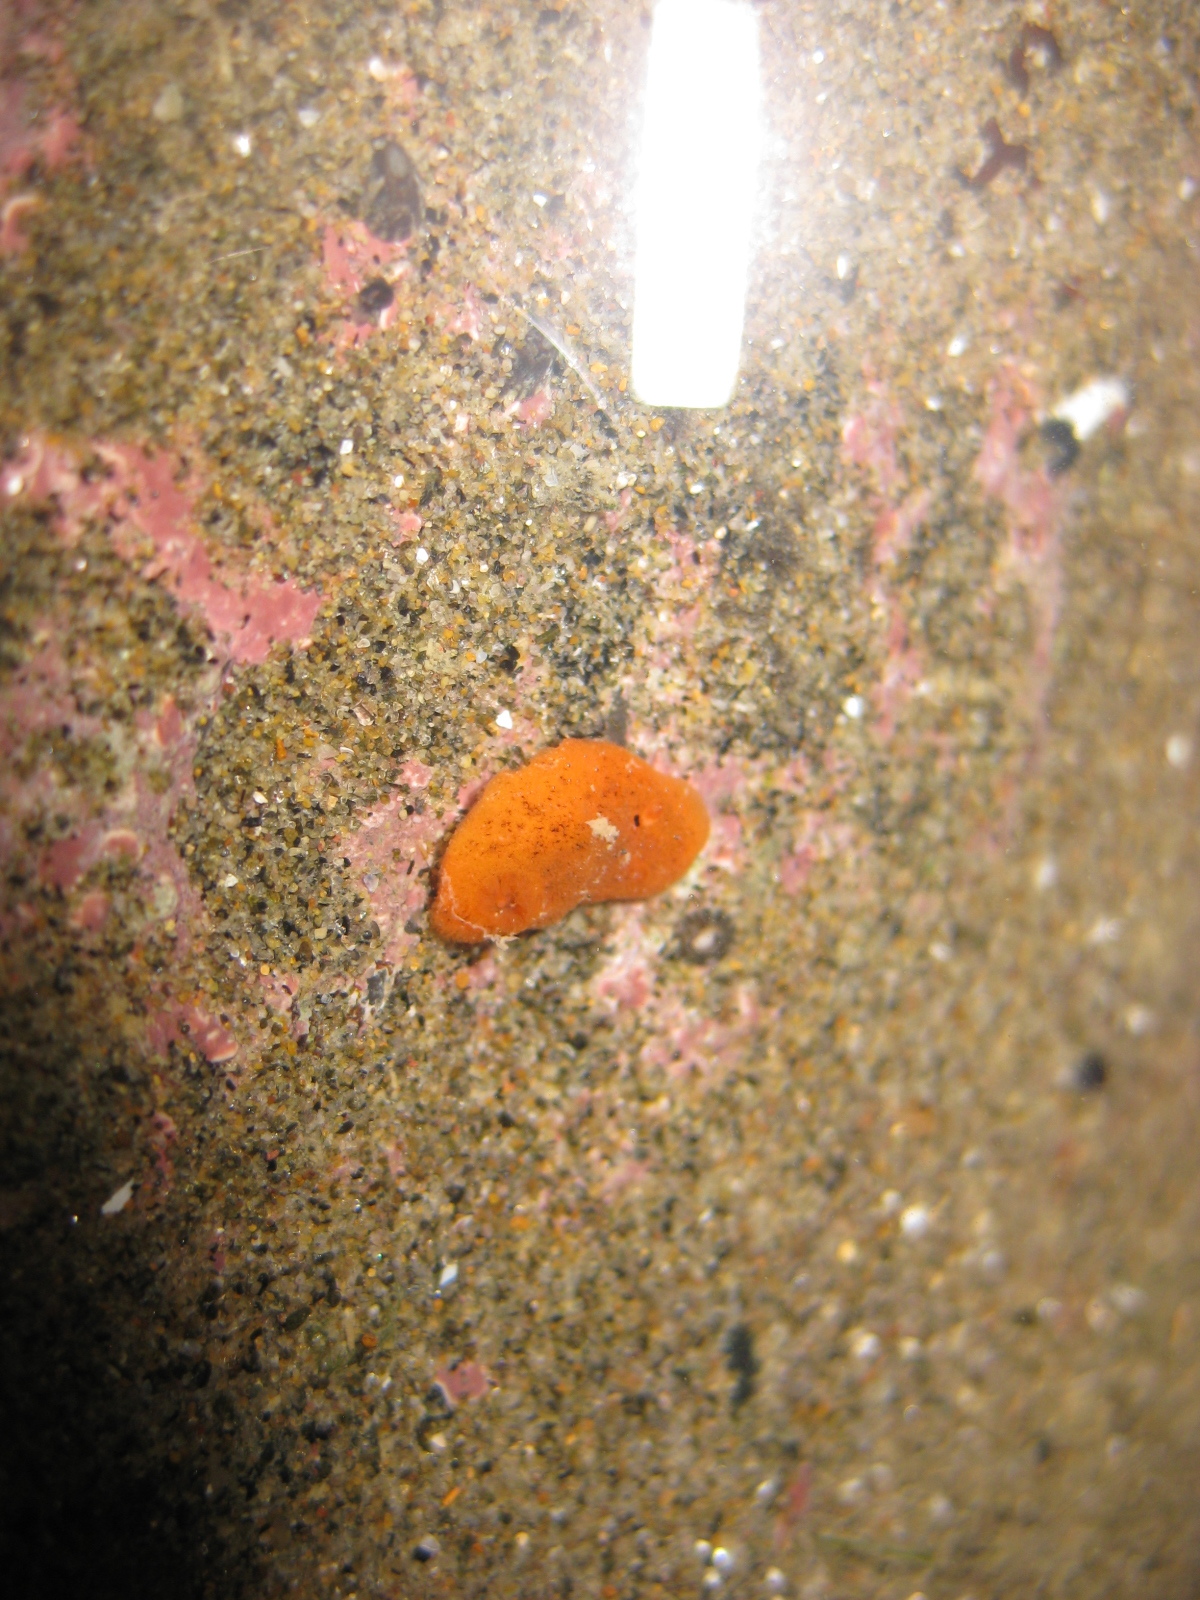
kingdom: Animalia
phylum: Mollusca
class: Gastropoda
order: Nudibranchia
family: Discodorididae
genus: Rostanga
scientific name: Rostanga muscula
